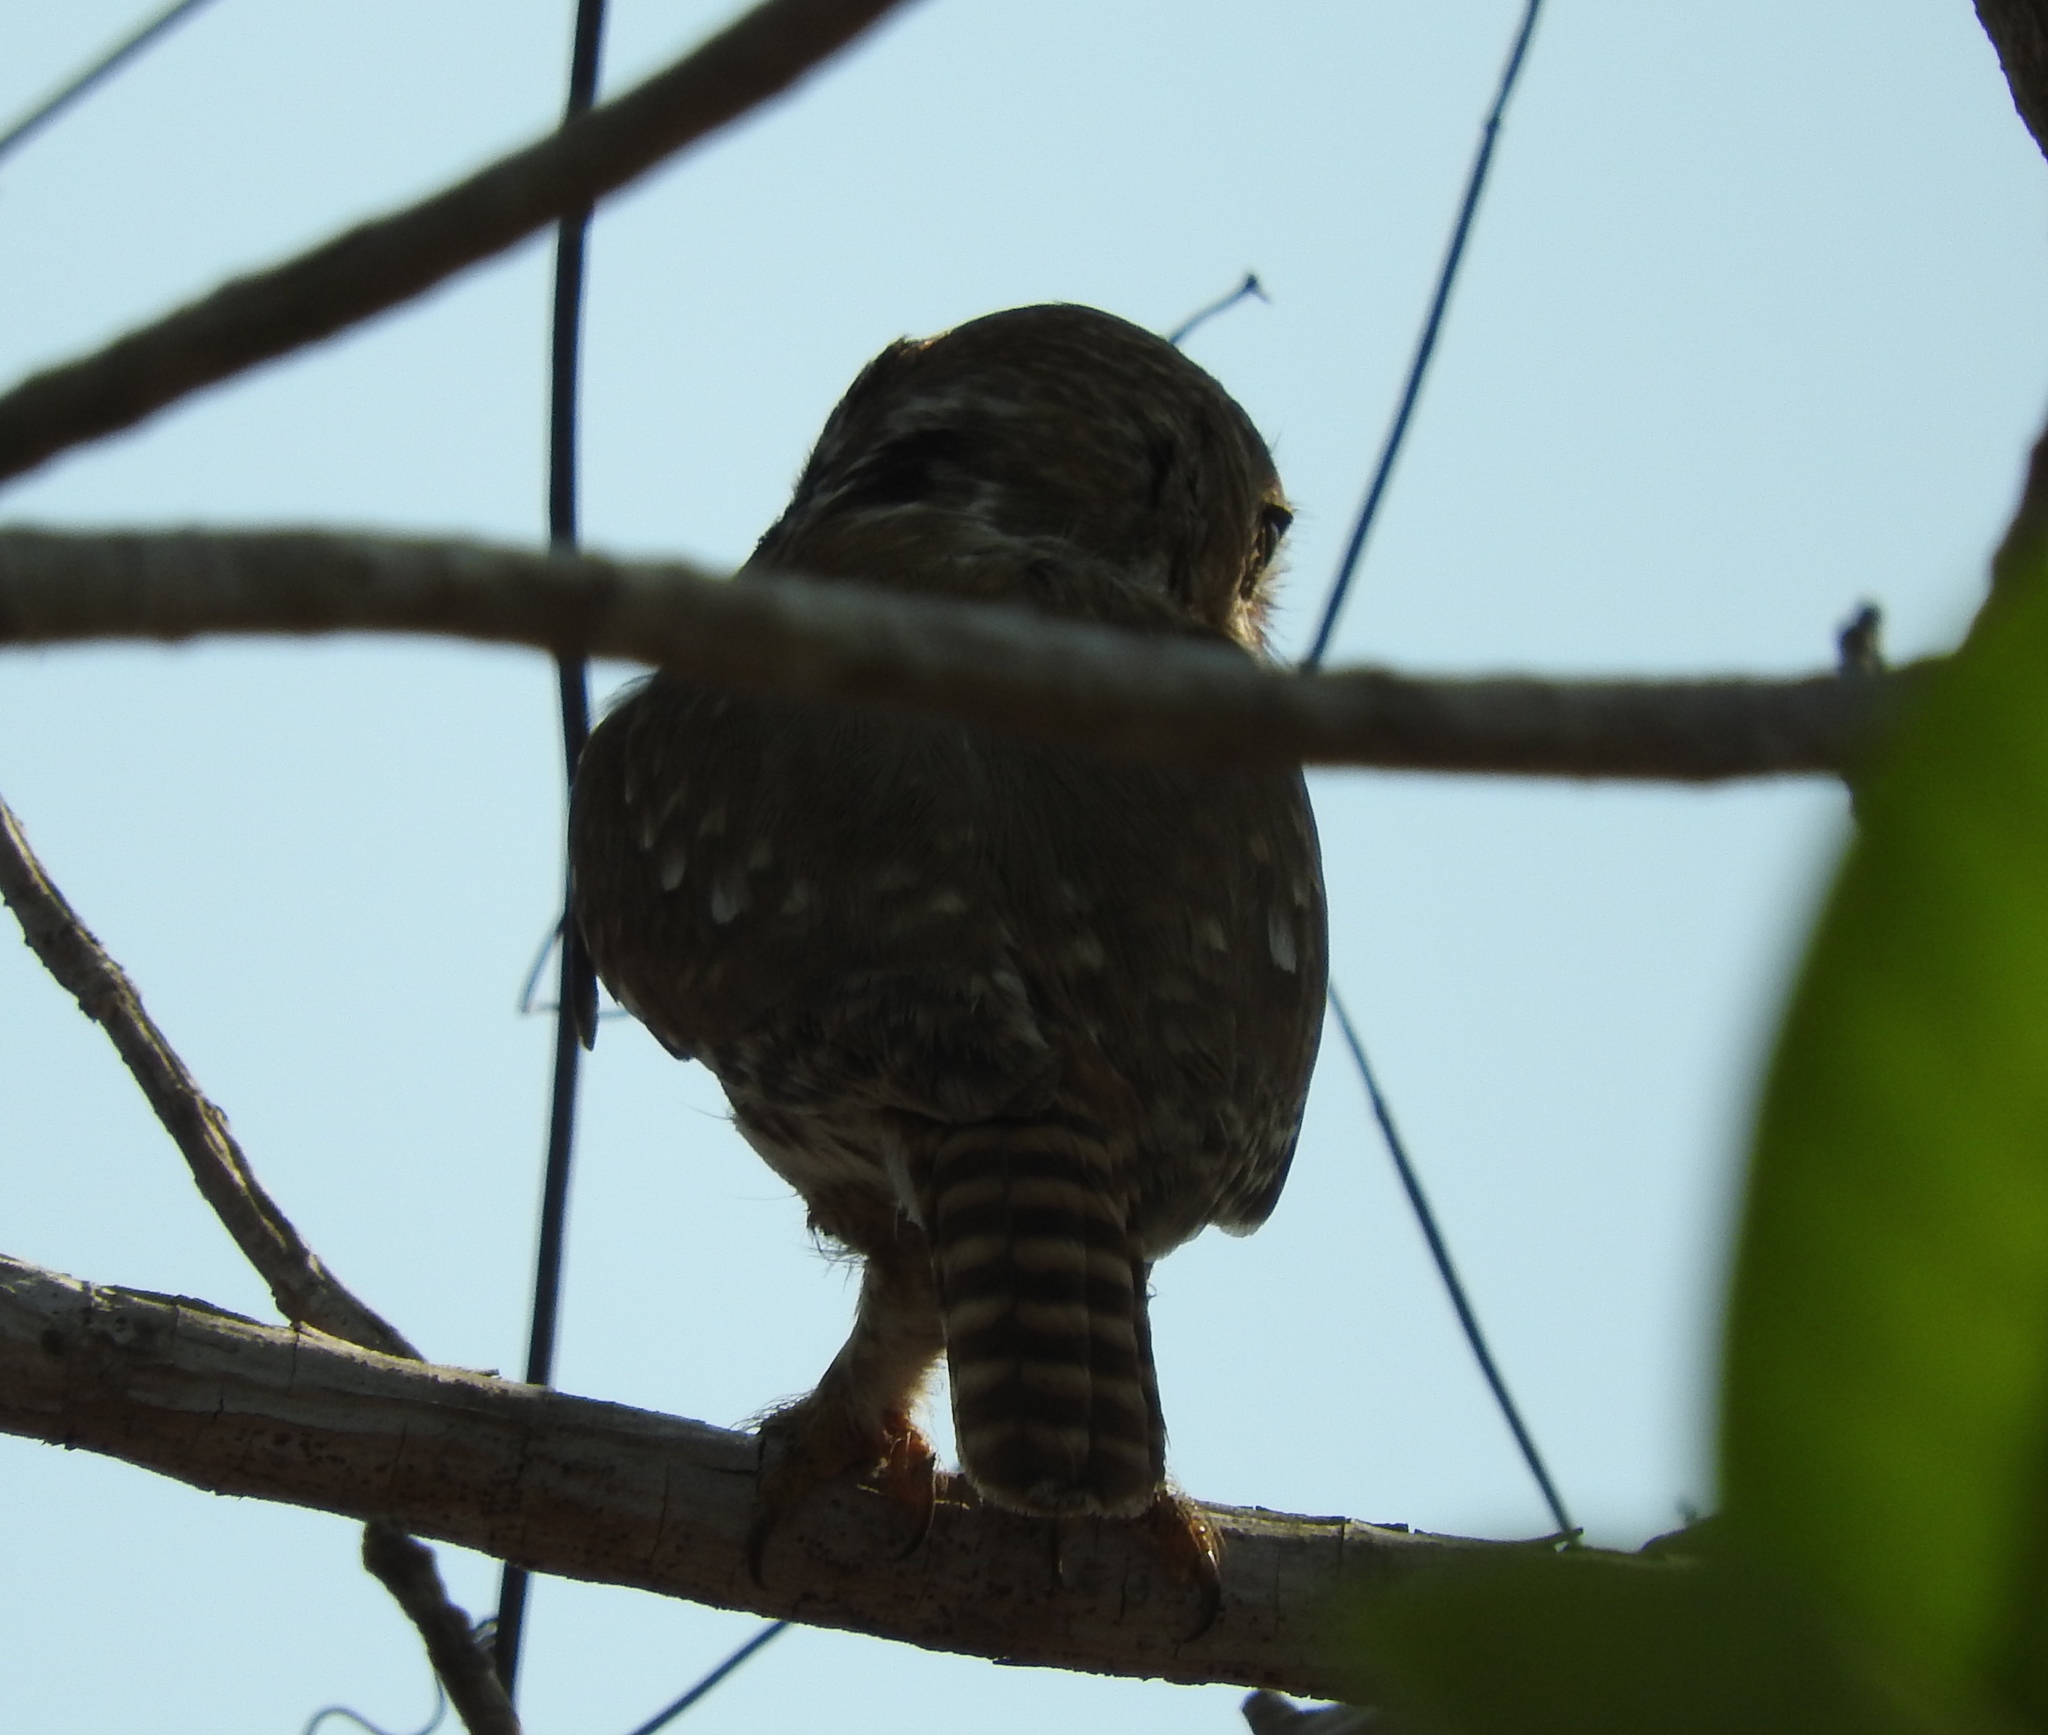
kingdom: Animalia
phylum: Chordata
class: Aves
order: Strigiformes
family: Strigidae
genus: Glaucidium
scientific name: Glaucidium brasilianum
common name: Ferruginous pygmy-owl
